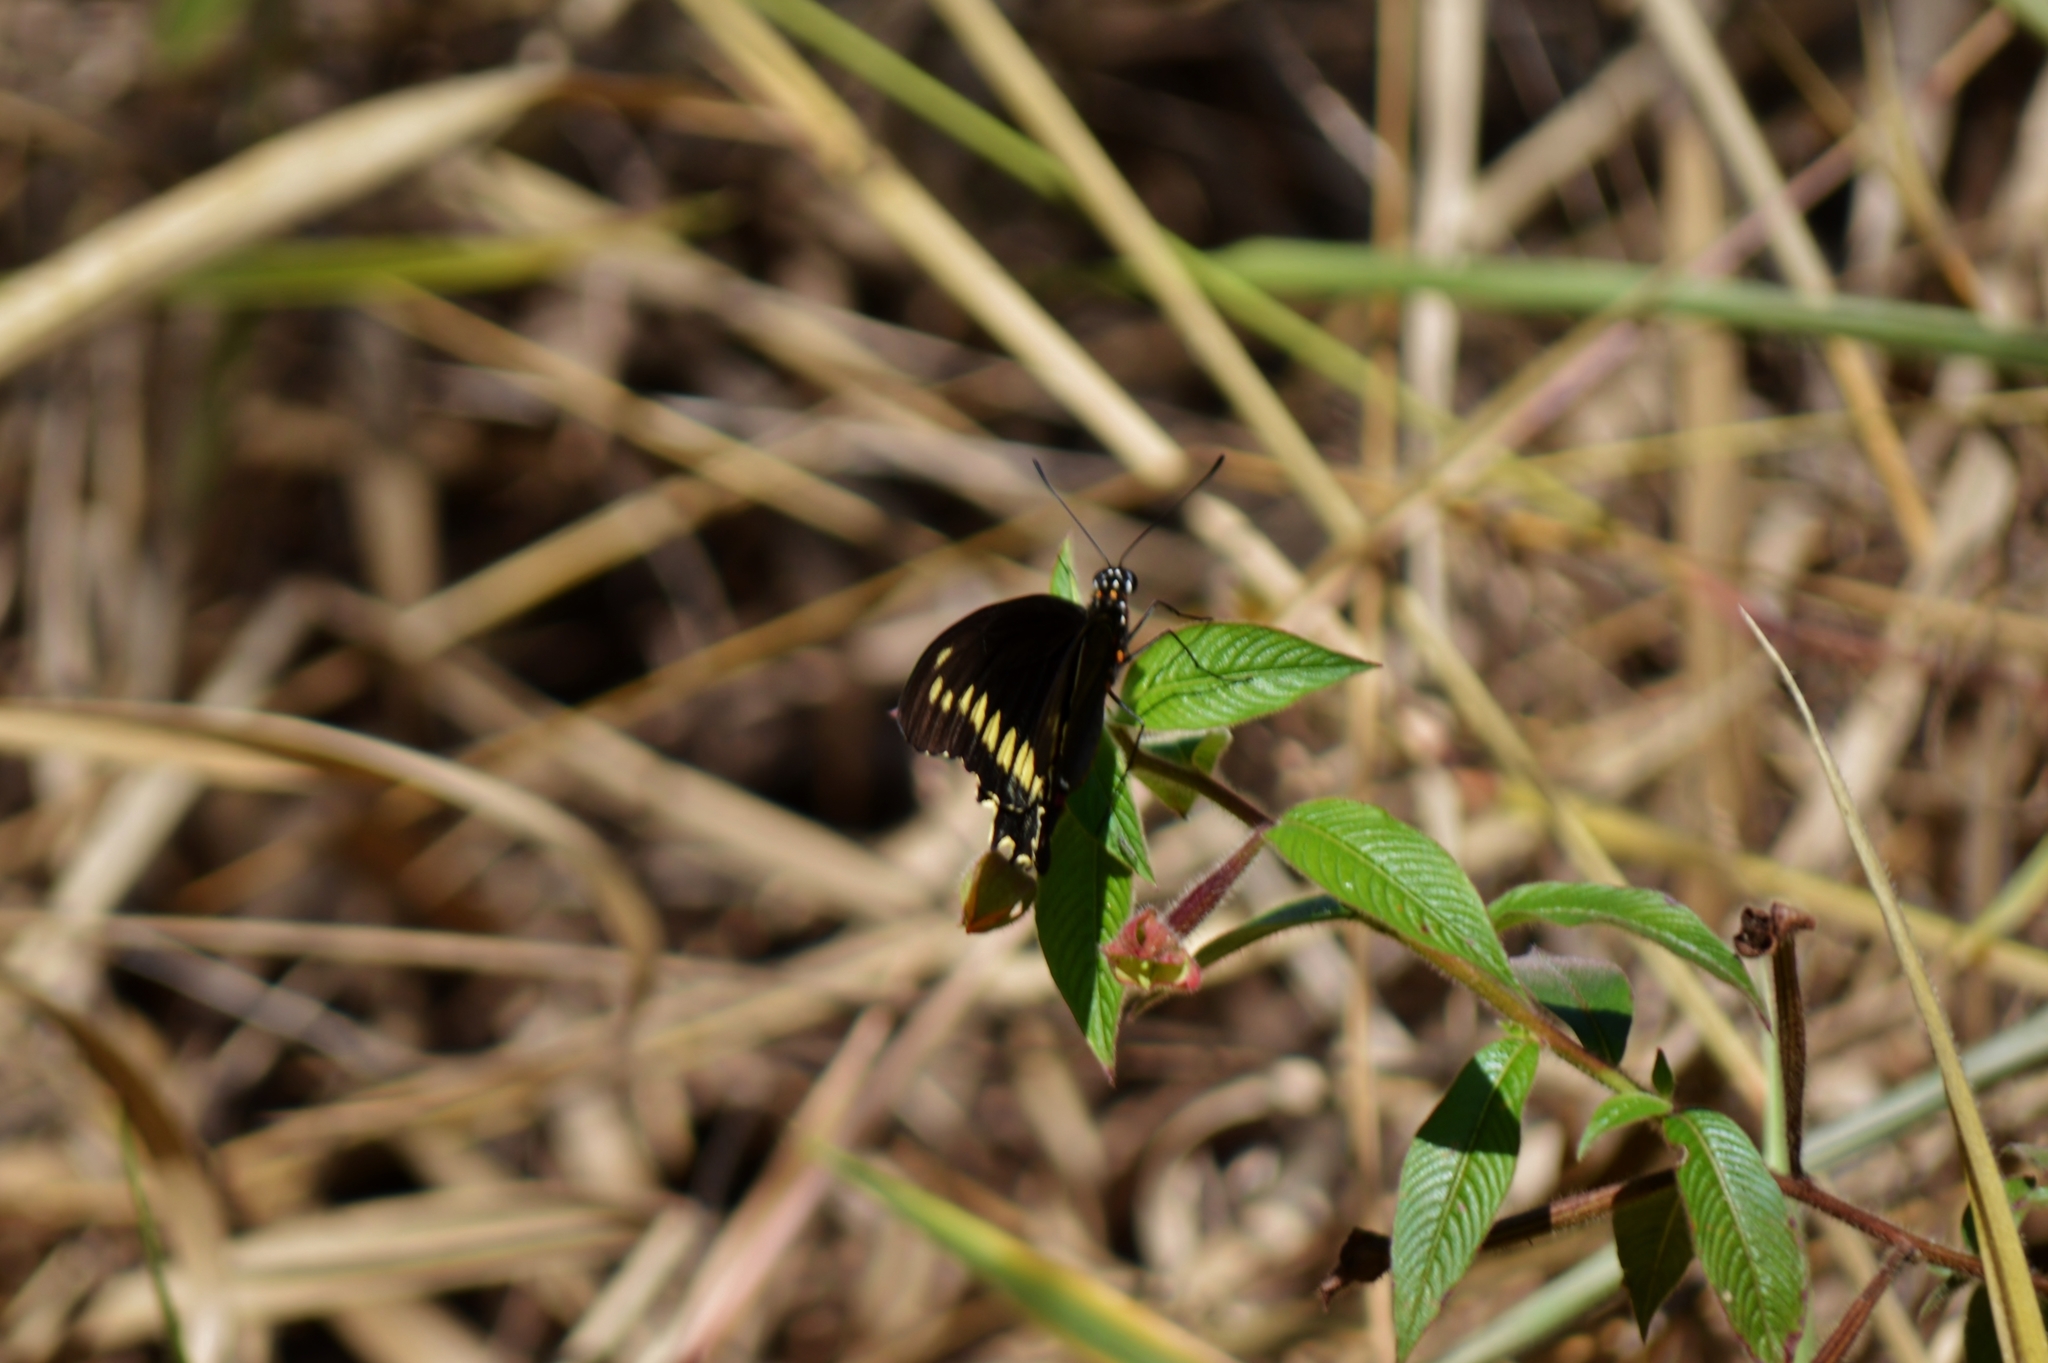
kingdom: Animalia
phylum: Arthropoda
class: Insecta
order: Lepidoptera
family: Papilionidae
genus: Battus
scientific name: Battus polydamas
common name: Polydamas swallowtail
